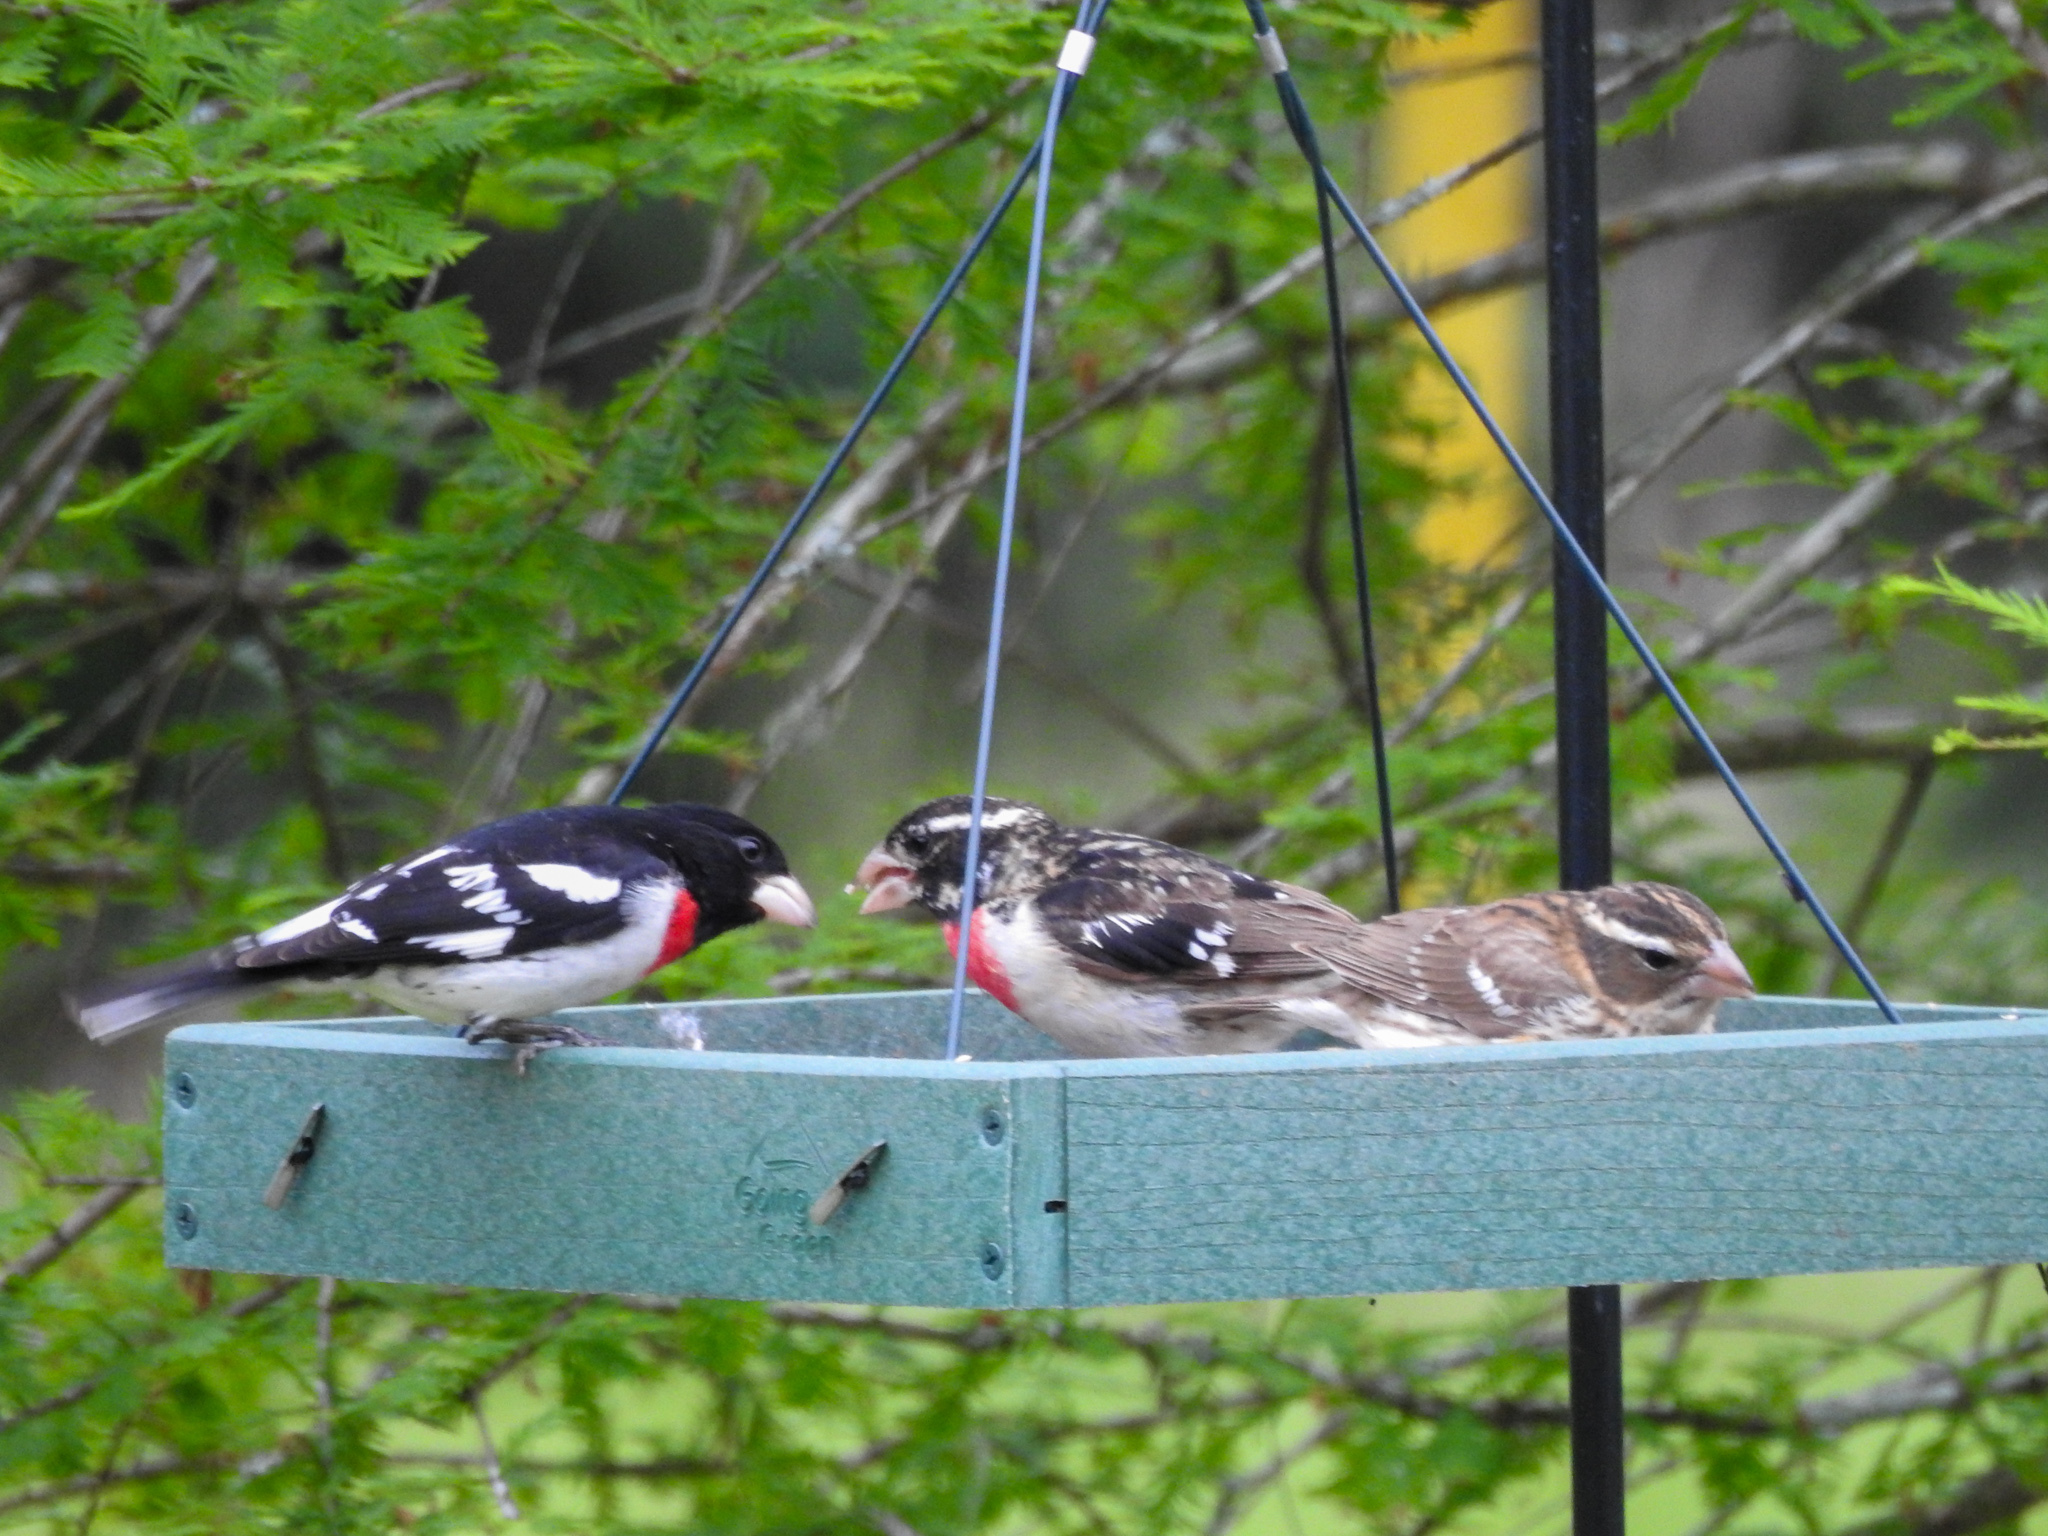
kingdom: Animalia
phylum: Chordata
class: Aves
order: Passeriformes
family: Cardinalidae
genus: Pheucticus
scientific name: Pheucticus ludovicianus
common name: Rose-breasted grosbeak
